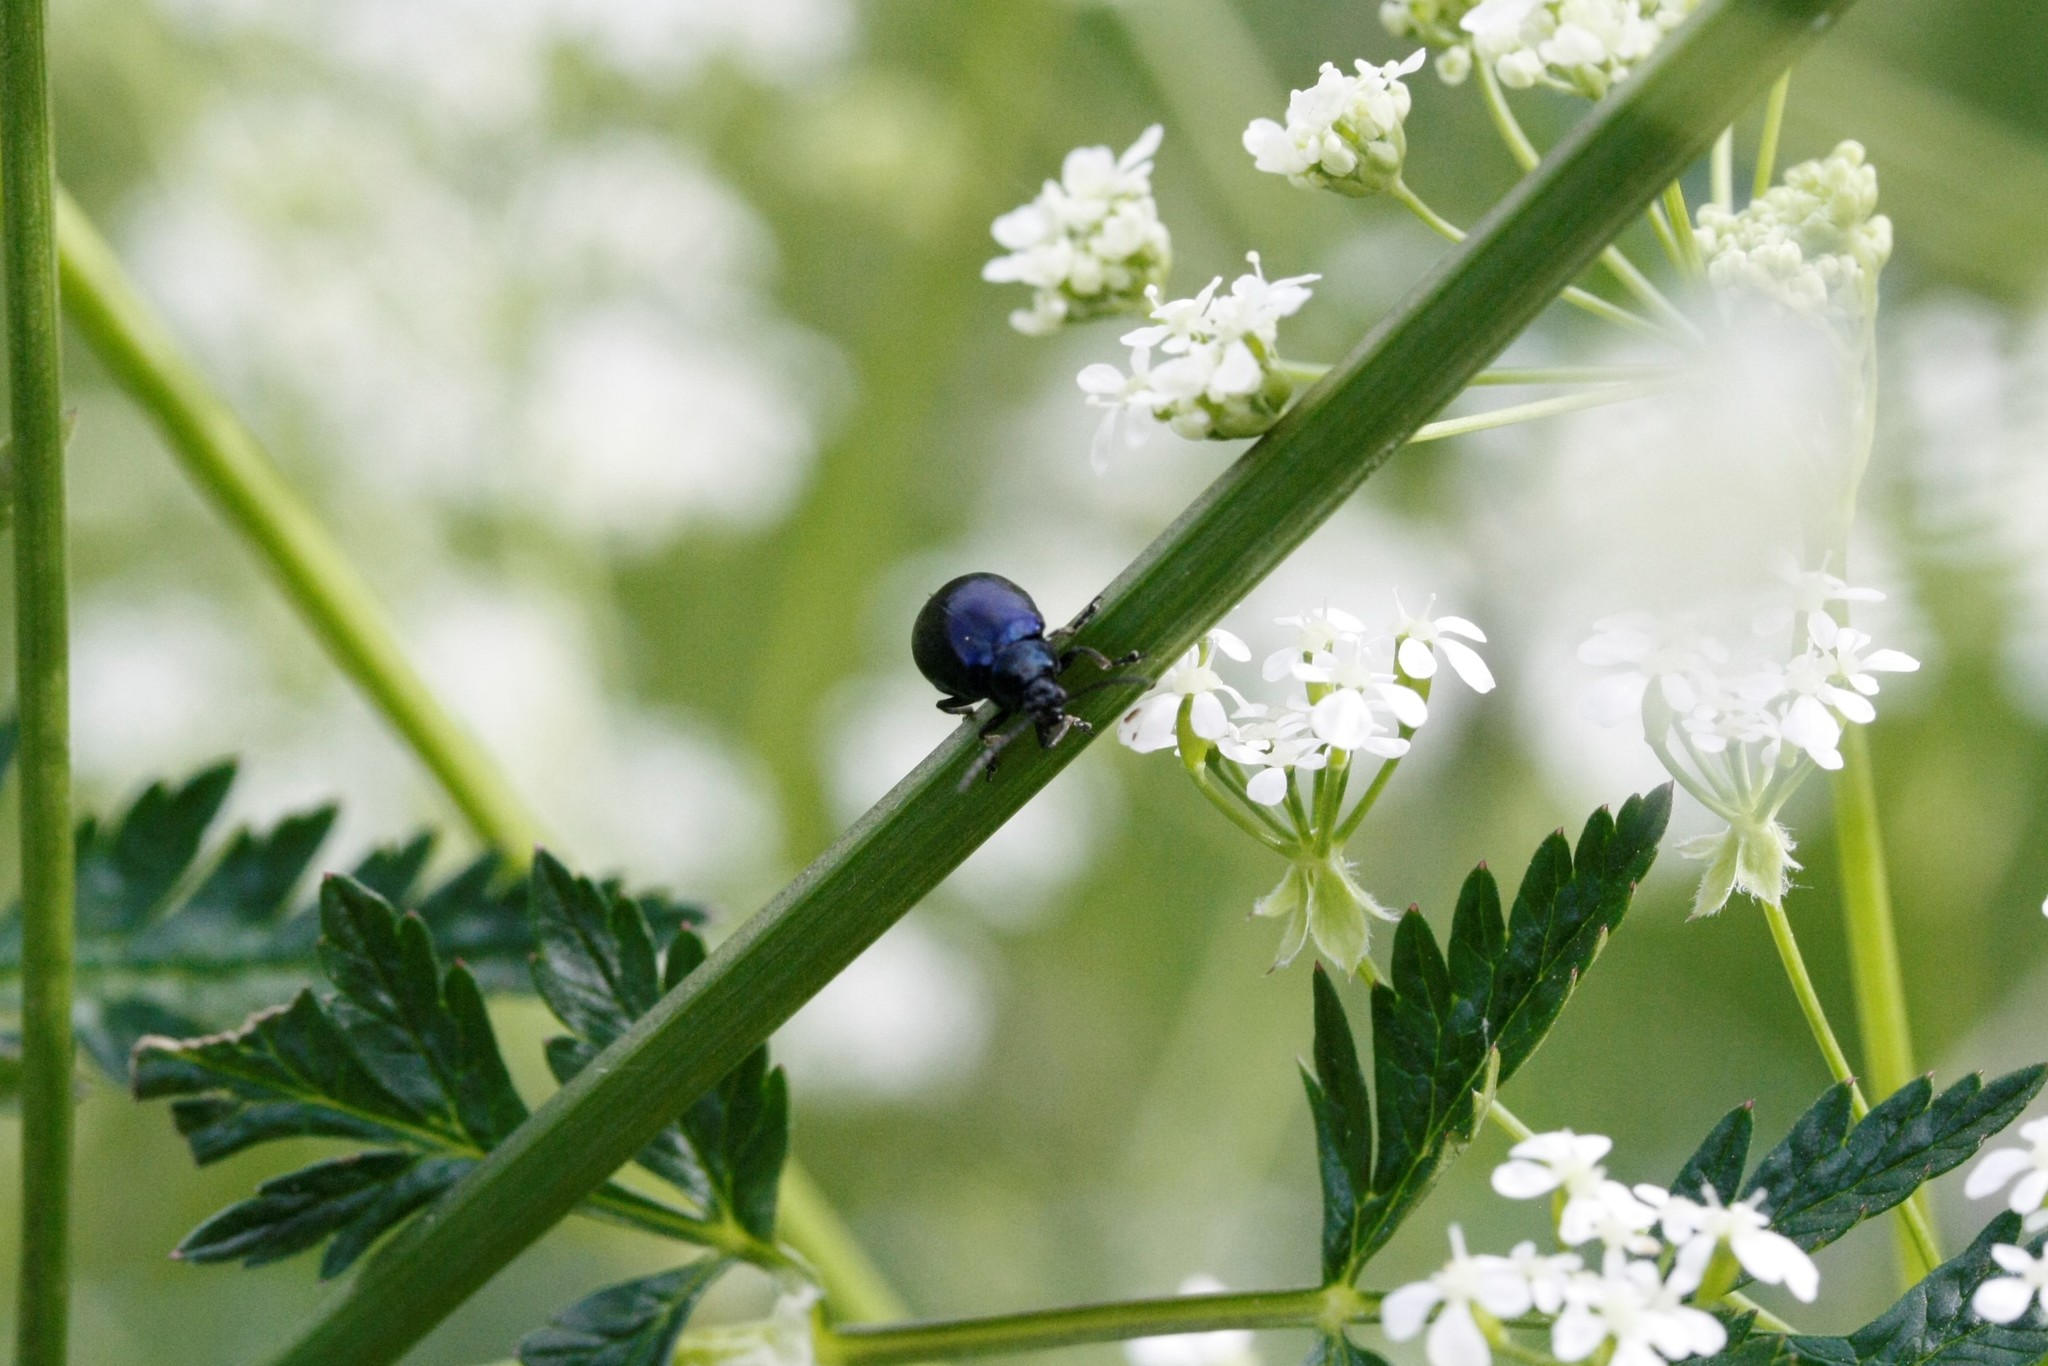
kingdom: Animalia
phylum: Arthropoda
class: Insecta
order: Coleoptera
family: Chrysomelidae
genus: Agelastica
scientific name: Agelastica alni
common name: Alder leaf beetle
